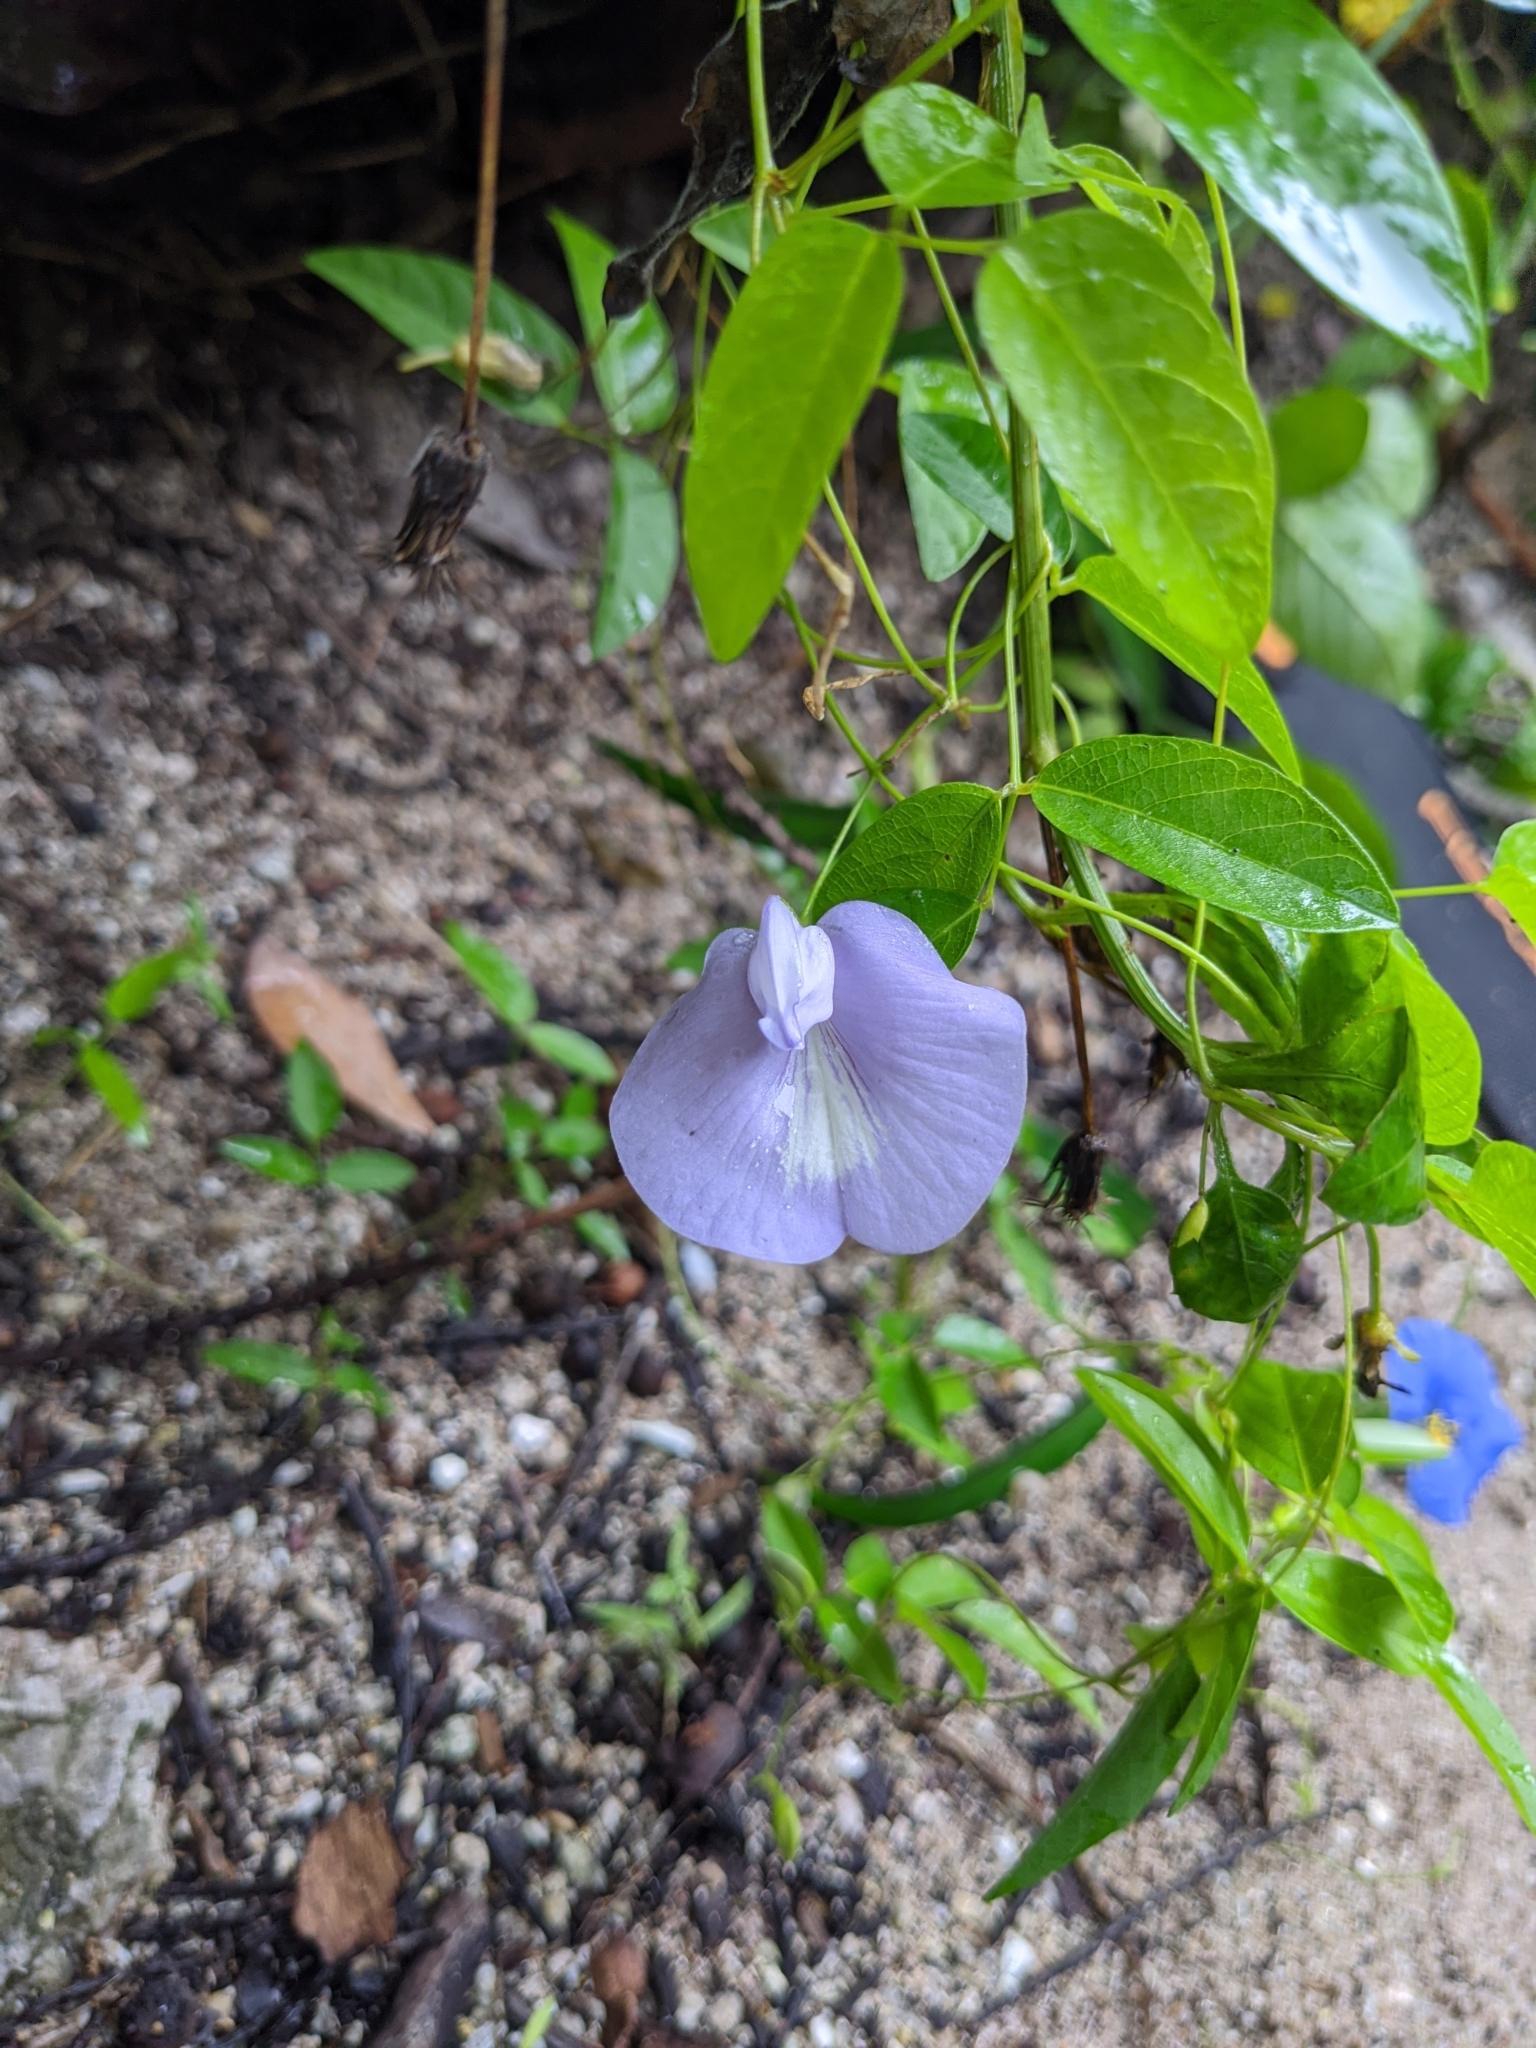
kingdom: Plantae
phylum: Tracheophyta
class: Magnoliopsida
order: Fabales
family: Fabaceae
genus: Centrosema
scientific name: Centrosema virginianum
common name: Butterfly-pea
